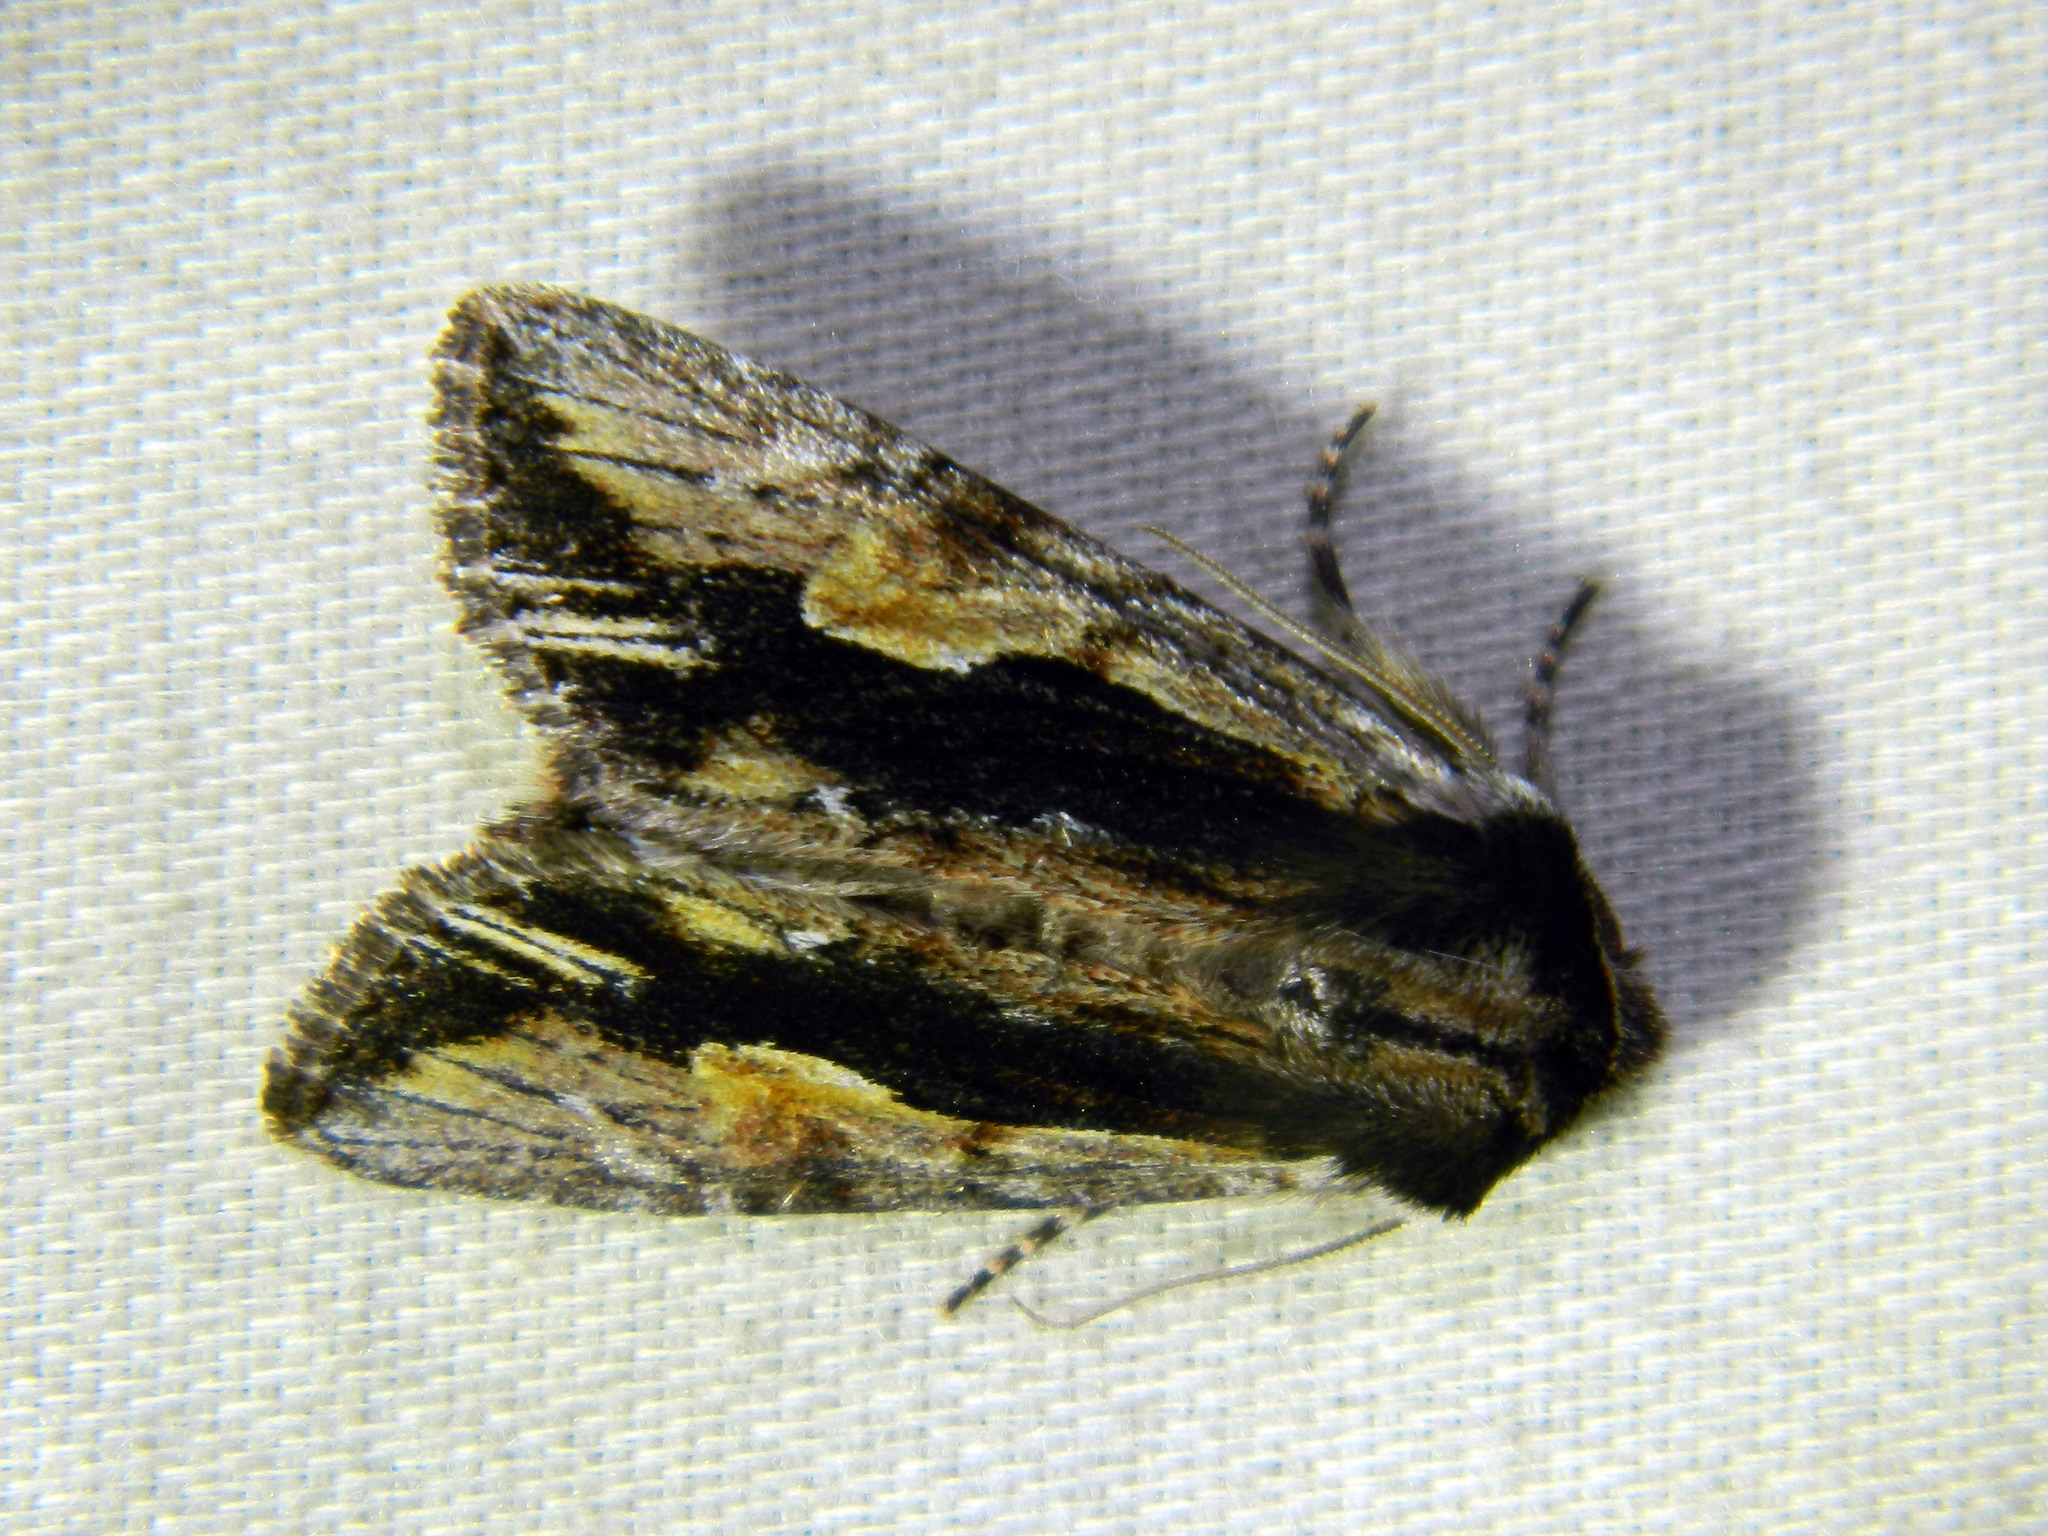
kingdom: Animalia
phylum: Arthropoda
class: Insecta
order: Lepidoptera
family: Noctuidae
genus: Achatia
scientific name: Achatia evicta
